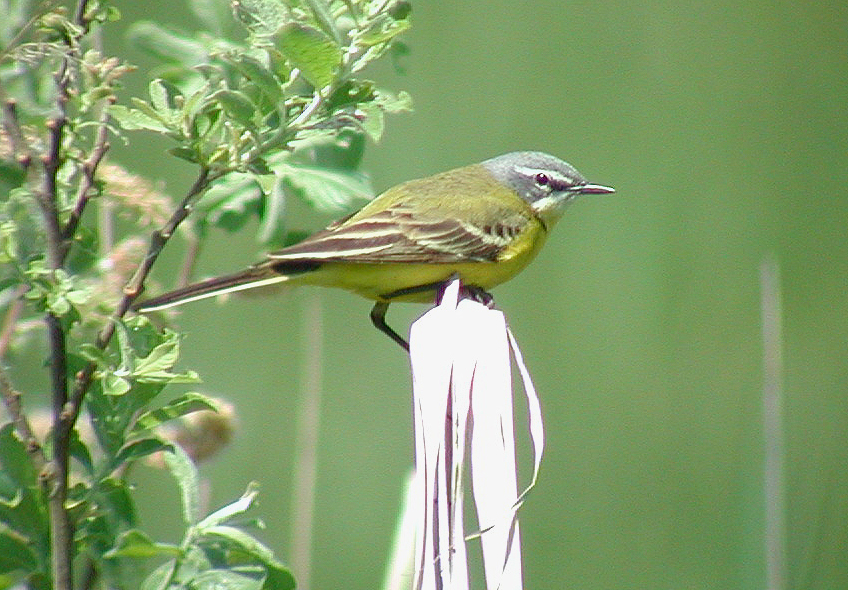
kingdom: Animalia
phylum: Chordata
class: Aves
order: Passeriformes
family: Motacillidae
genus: Motacilla
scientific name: Motacilla flava
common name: Western yellow wagtail
